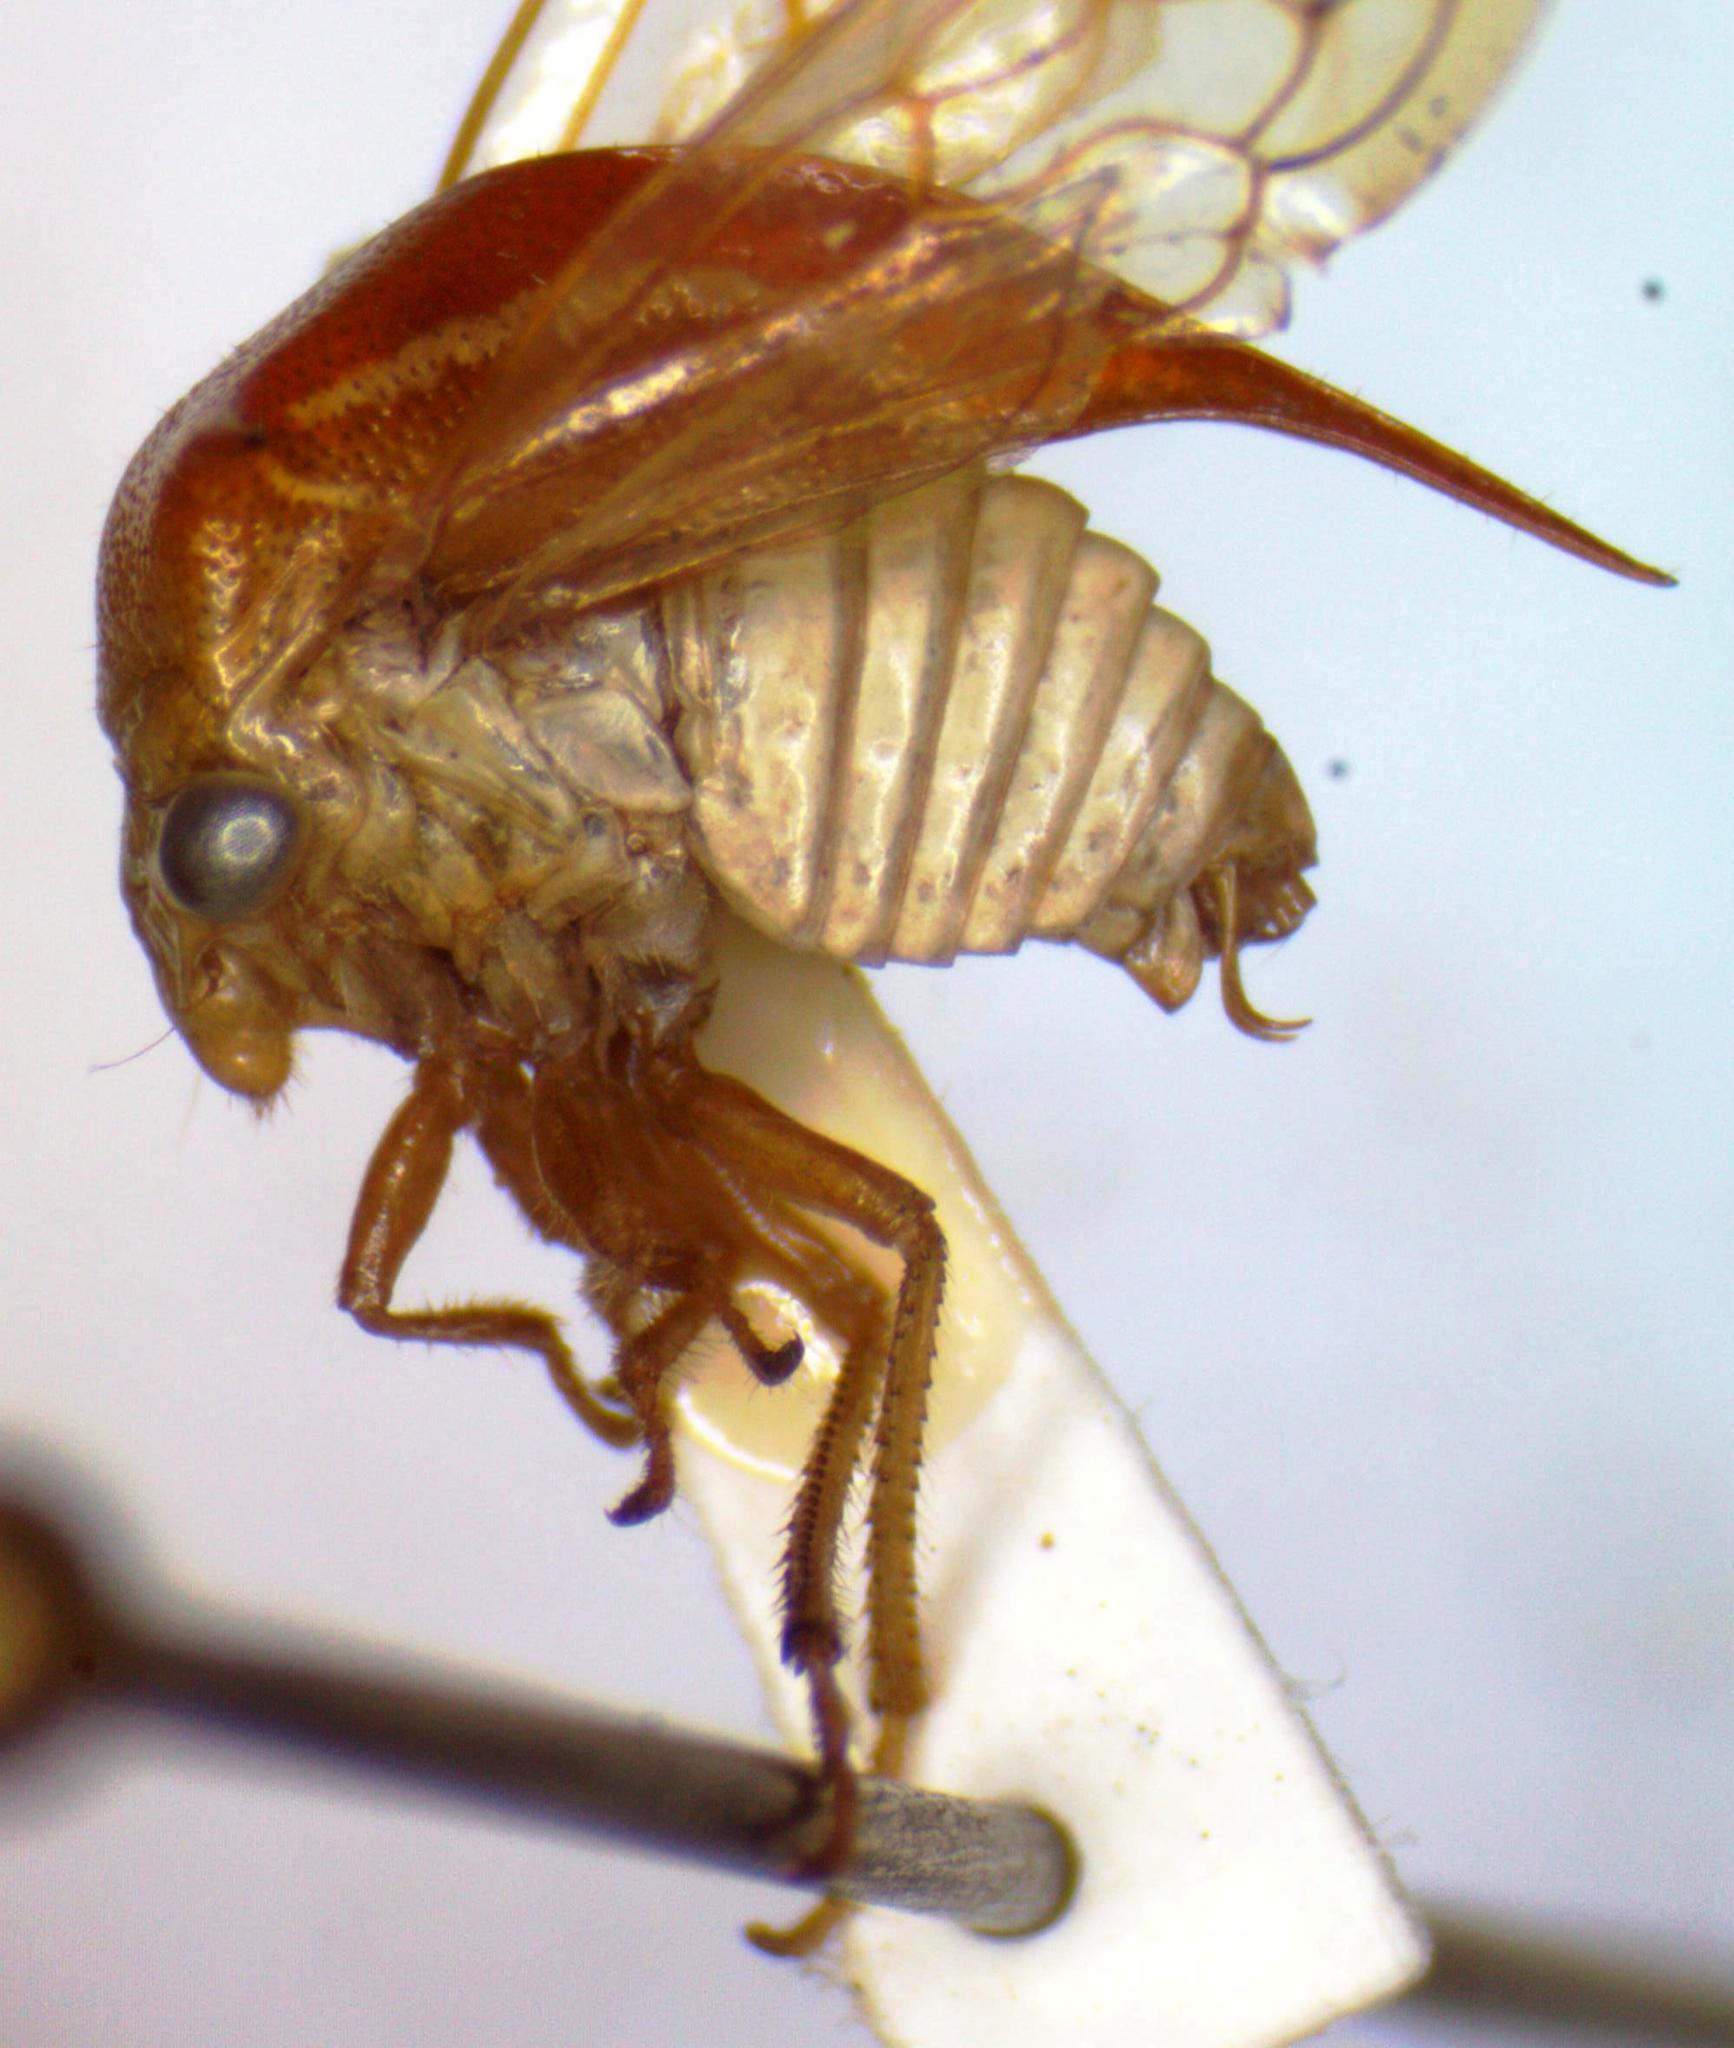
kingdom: Animalia
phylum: Arthropoda
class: Insecta
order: Hemiptera
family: Membracidae
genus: Stictolobus
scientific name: Stictolobus minor
